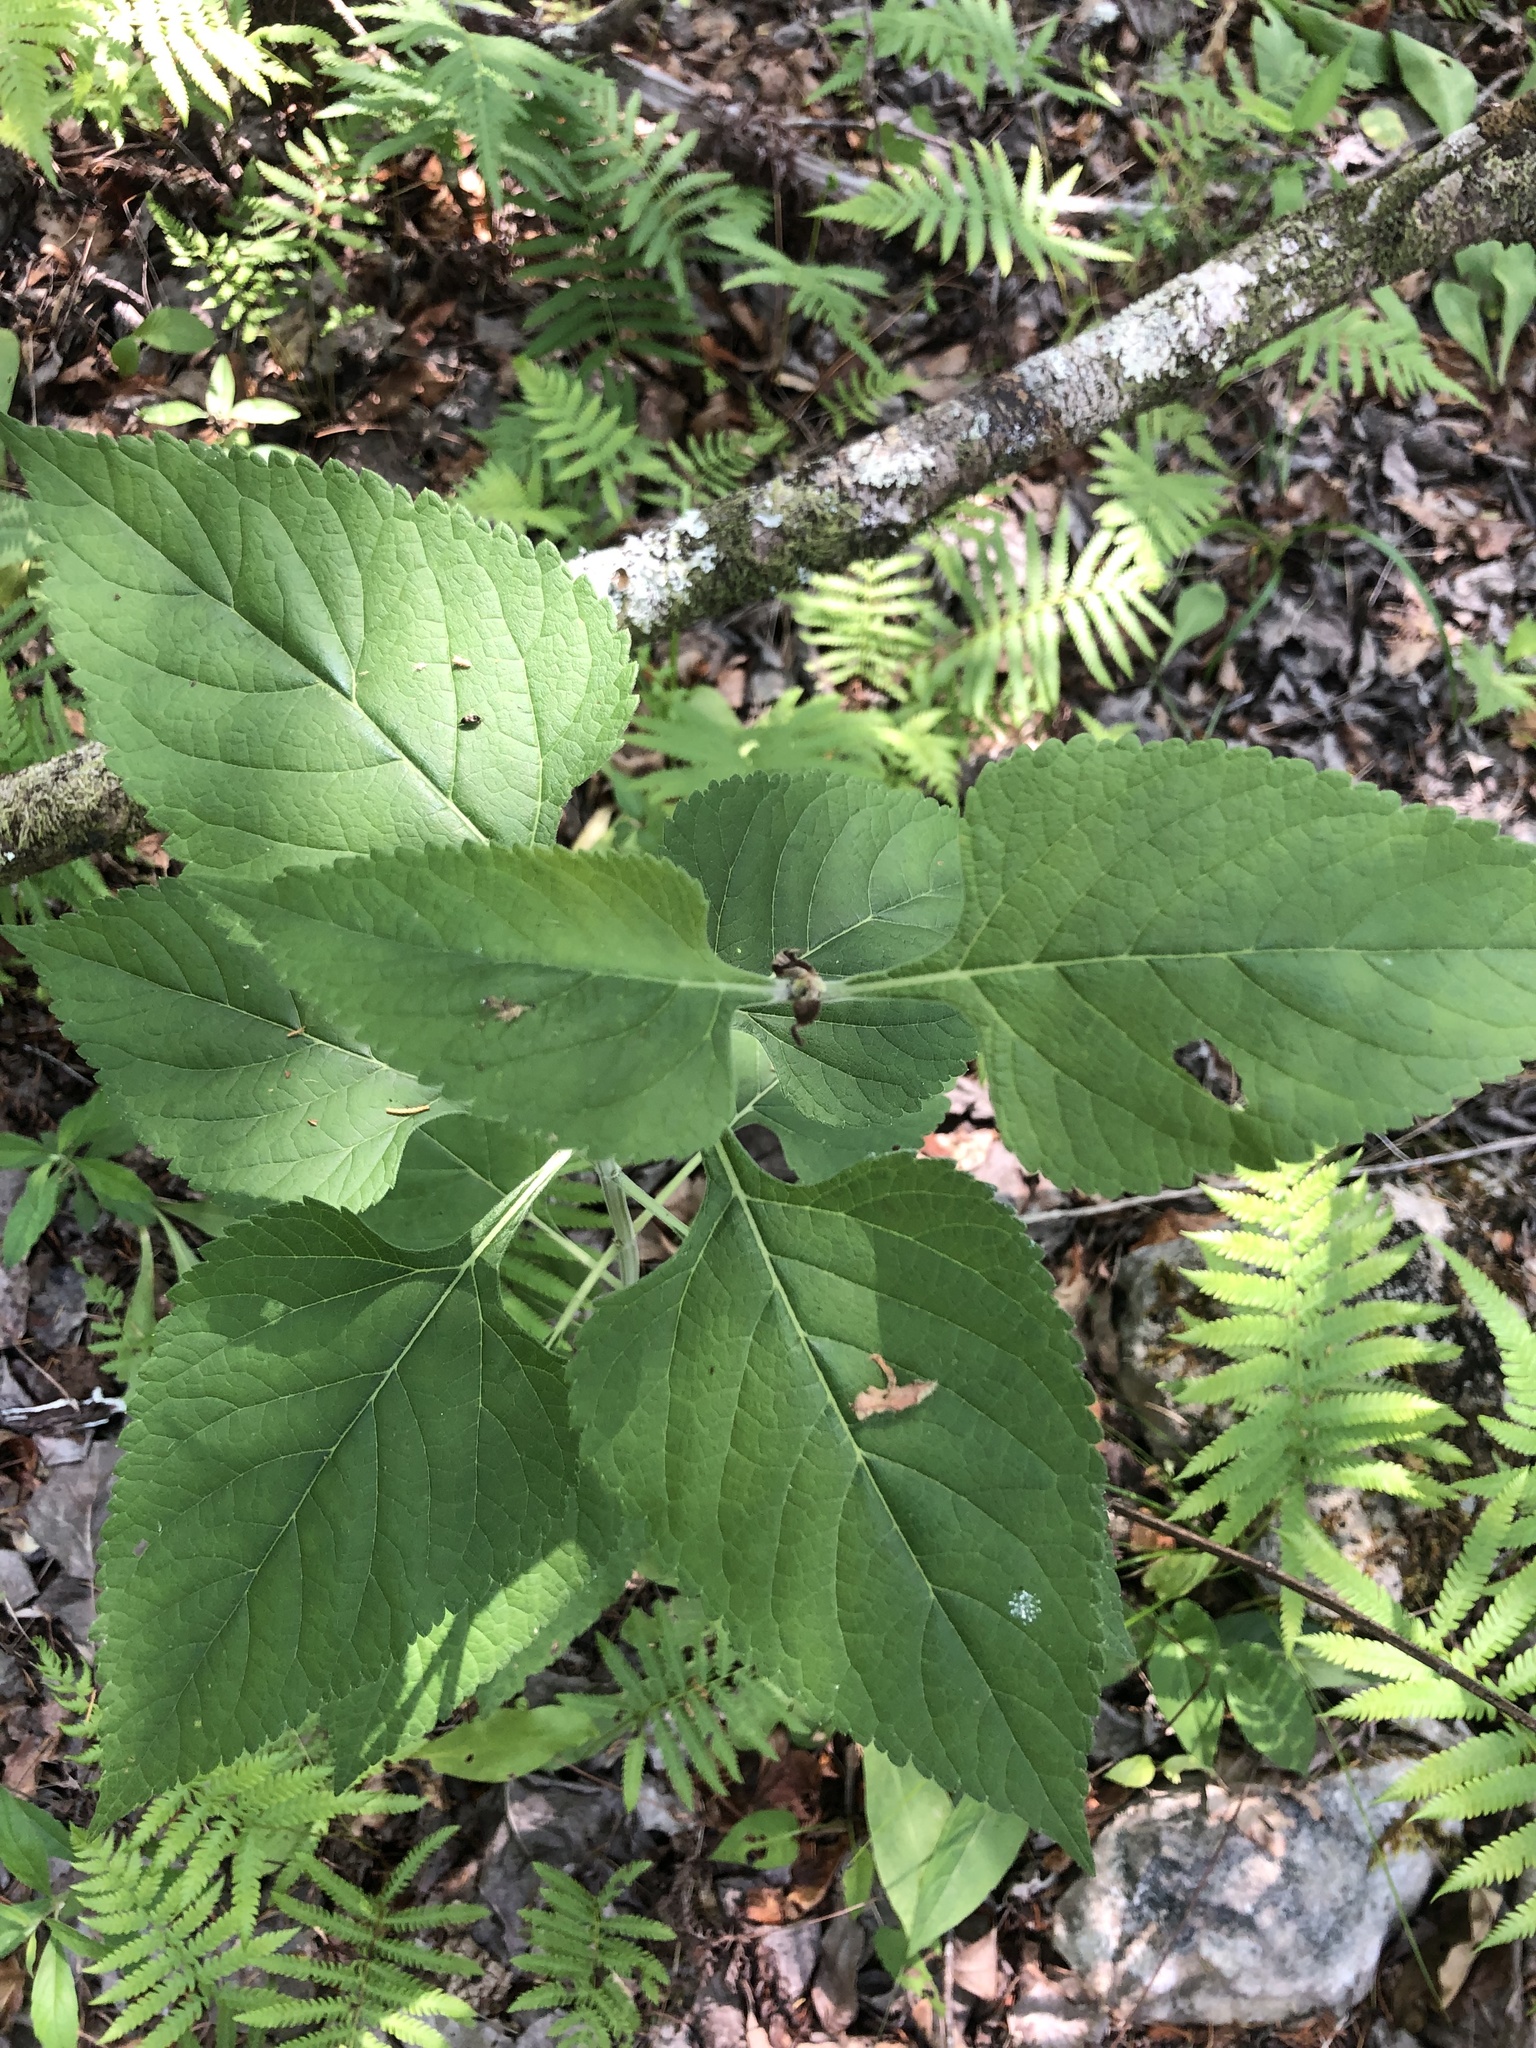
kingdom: Plantae
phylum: Tracheophyta
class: Magnoliopsida
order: Lamiales
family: Lamiaceae
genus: Salvia
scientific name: Salvia chapmanii
